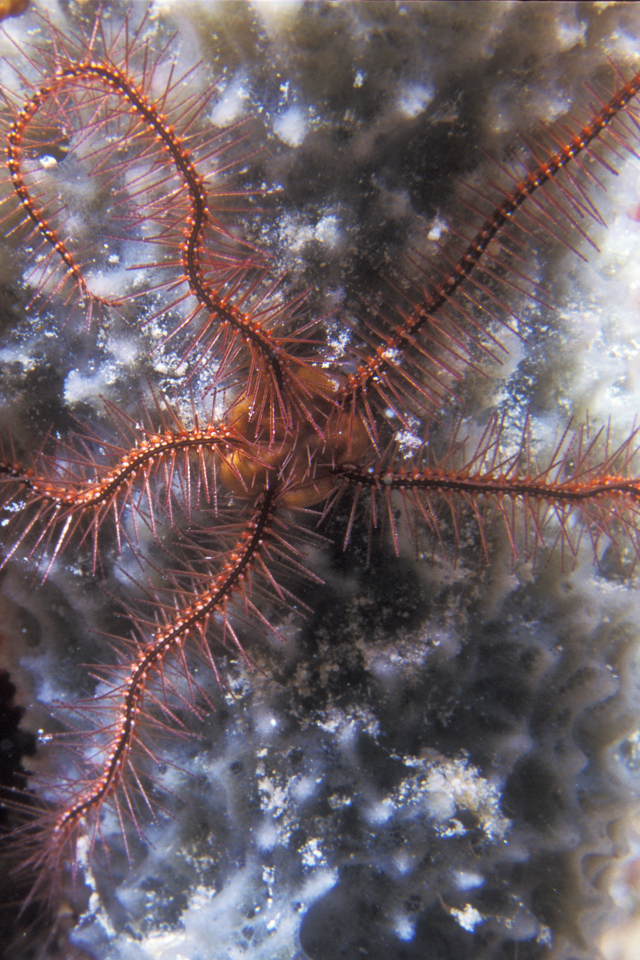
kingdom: Animalia
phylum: Echinodermata
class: Ophiuroidea
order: Amphilepidida
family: Ophiotrichidae
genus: Ophiothrix
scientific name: Ophiothrix suensonii
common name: Sponge brittle star
